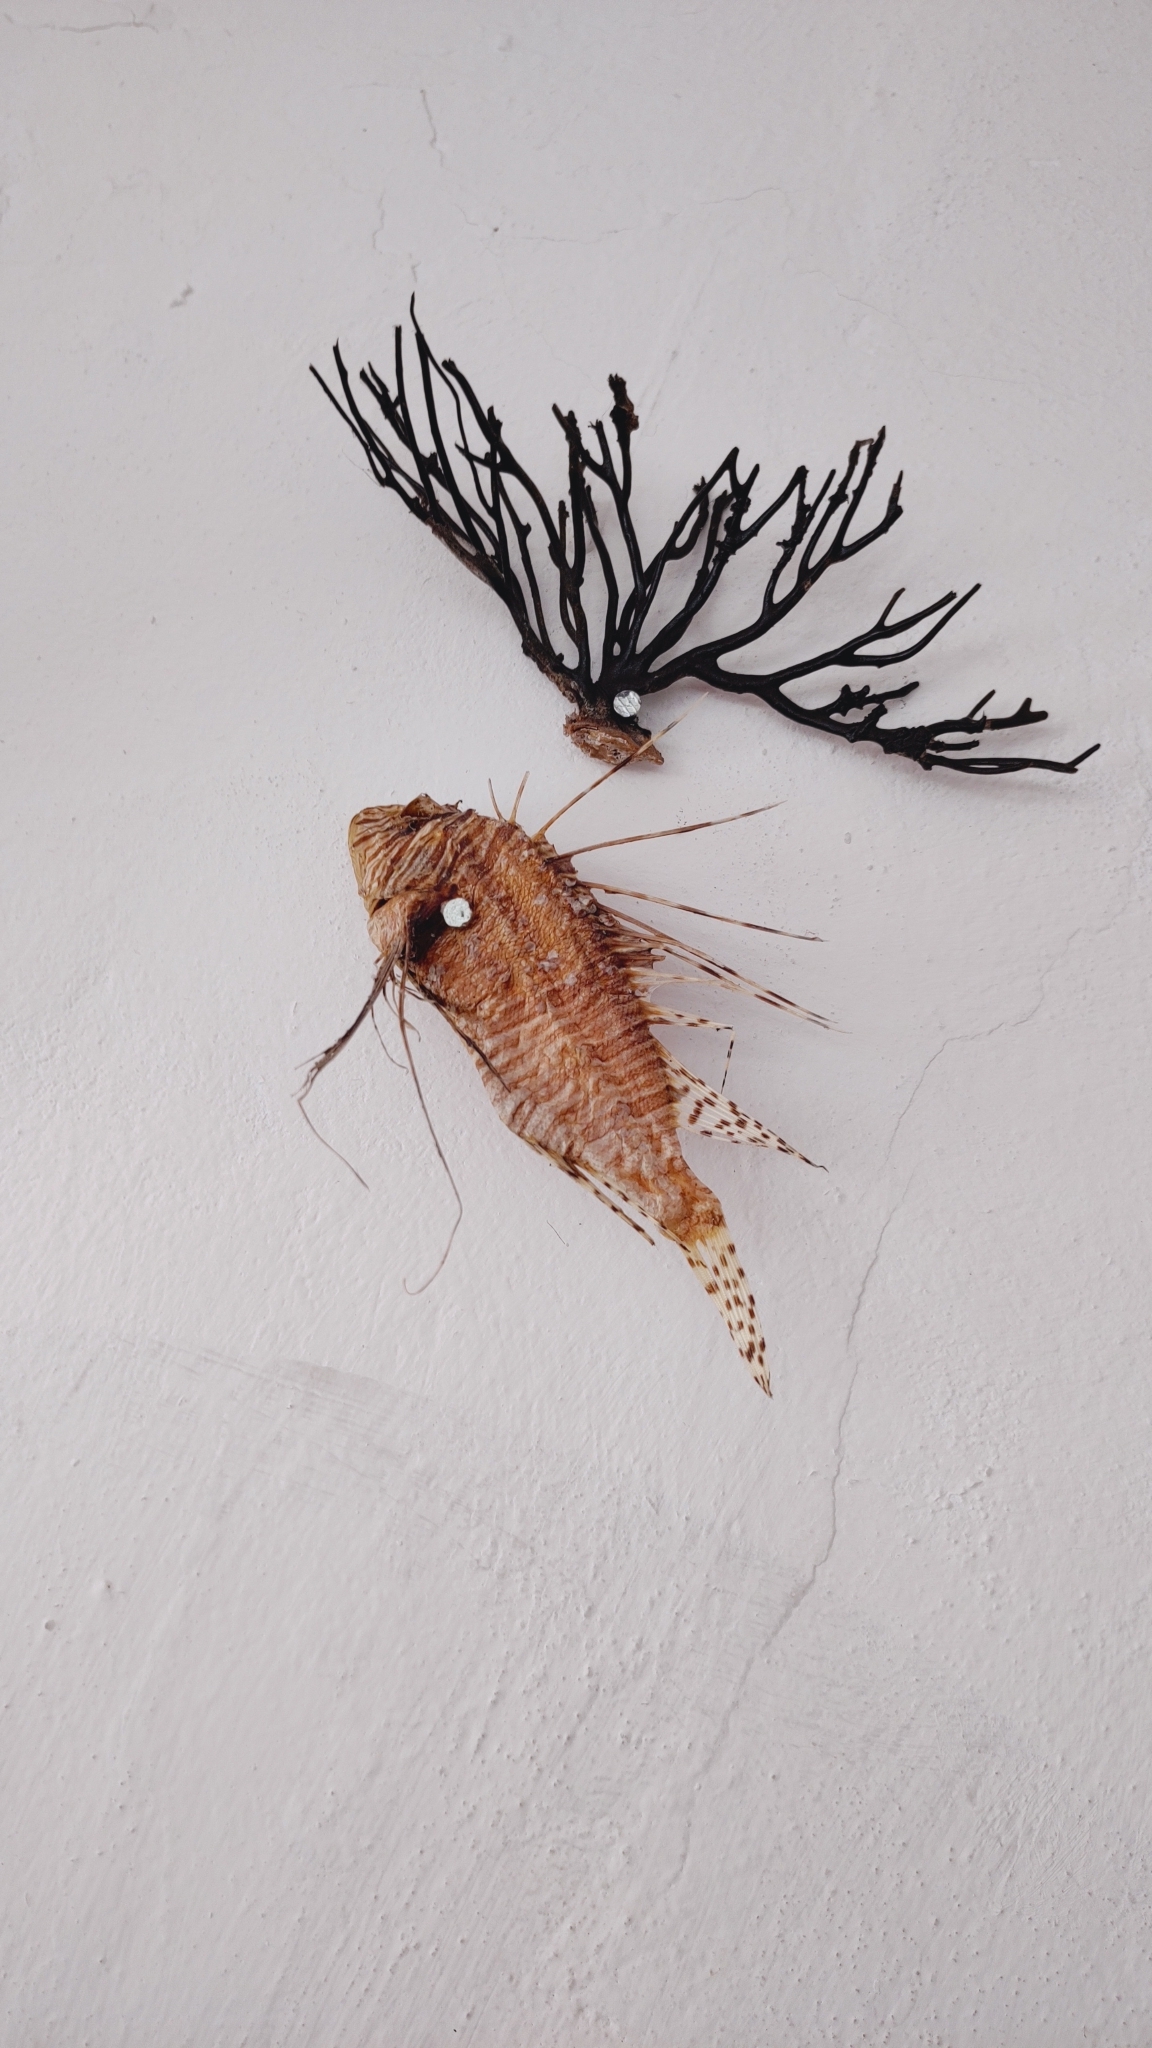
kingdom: Animalia
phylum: Chordata
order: Scorpaeniformes
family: Scorpaenidae
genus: Pterois
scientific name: Pterois volitans
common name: Lionfish
